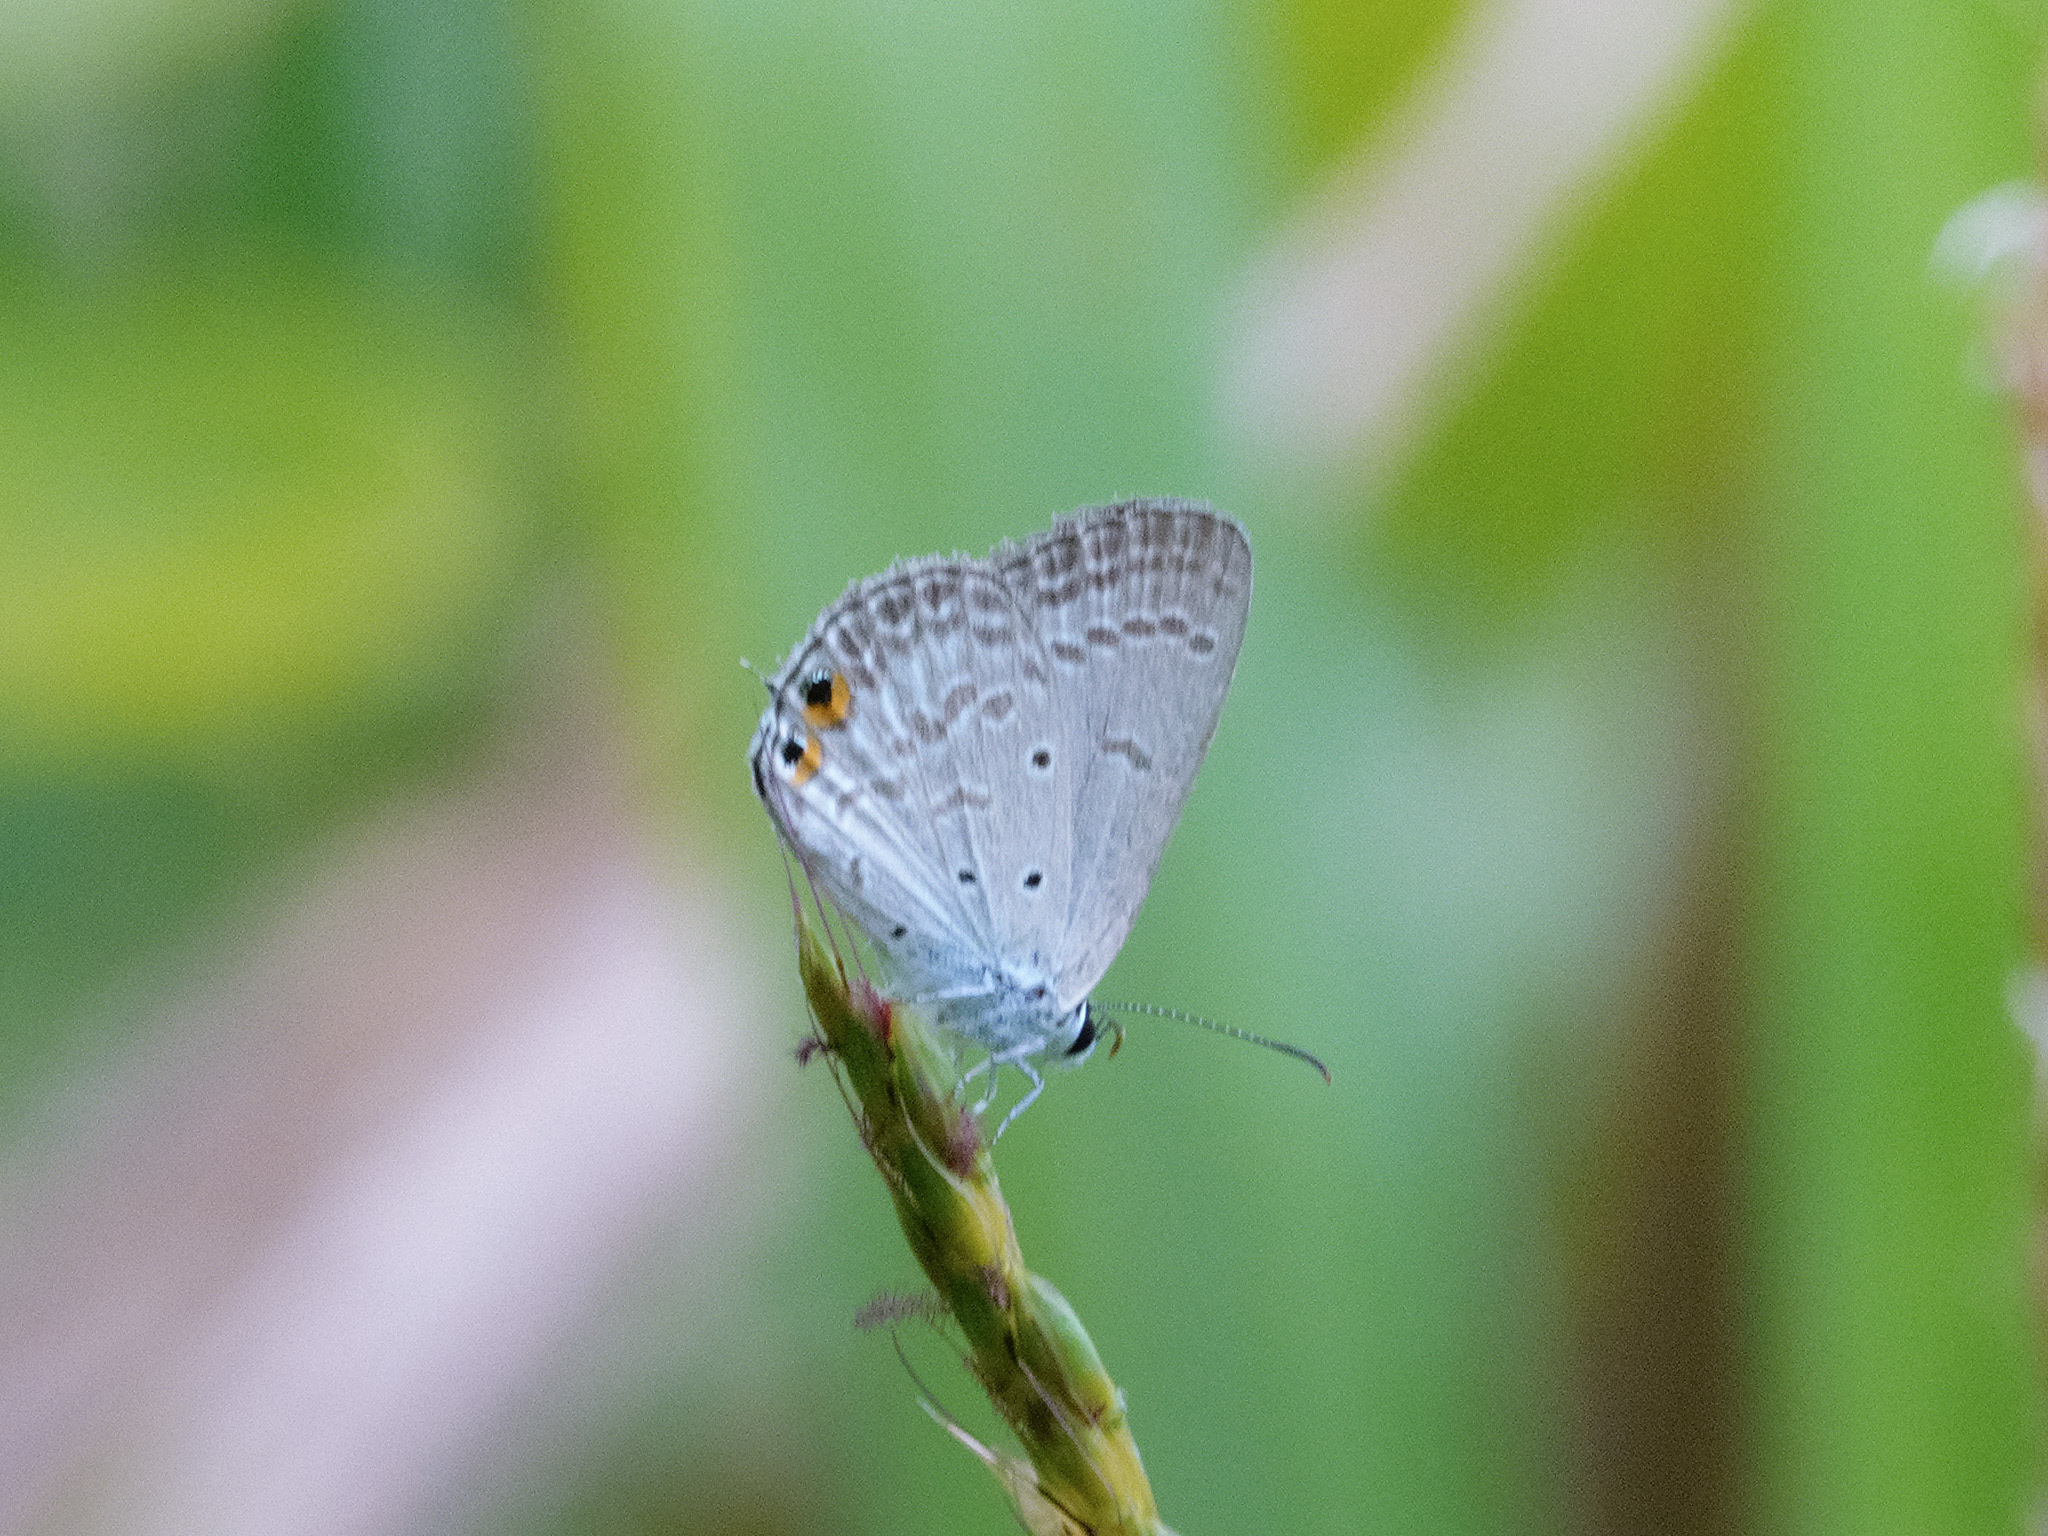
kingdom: Animalia
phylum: Arthropoda
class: Insecta
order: Lepidoptera
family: Lycaenidae
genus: Euchrysops
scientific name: Euchrysops cnejus
